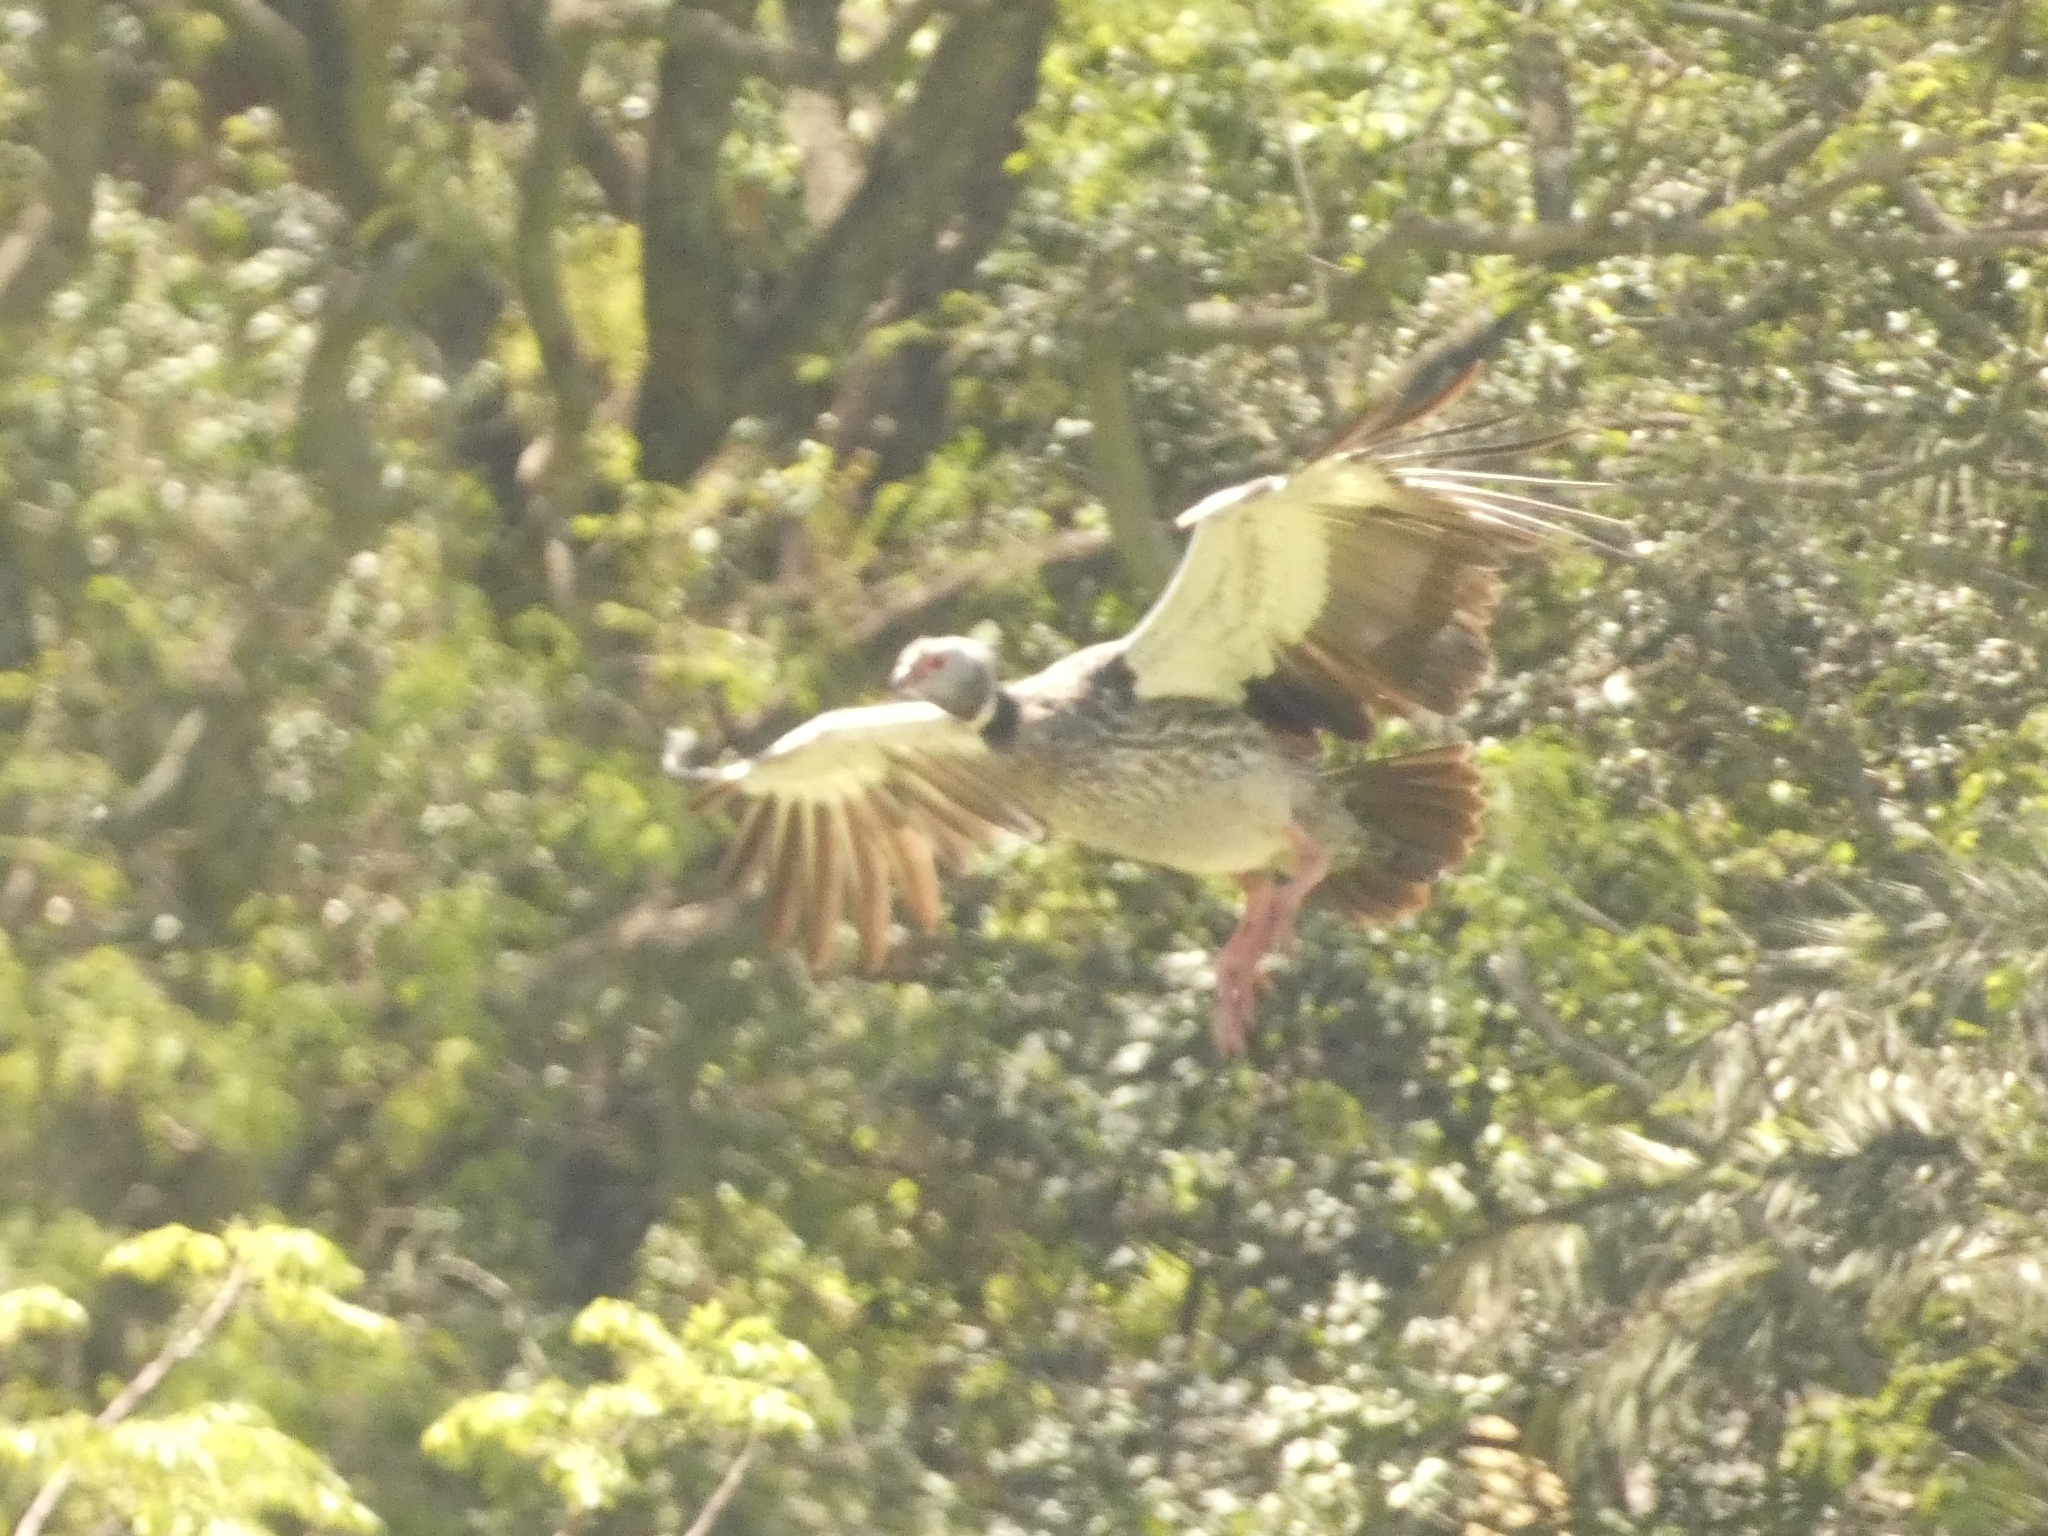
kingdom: Animalia
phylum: Chordata
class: Aves
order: Anseriformes
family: Anhimidae
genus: Chauna
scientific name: Chauna torquata
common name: Southern screamer
